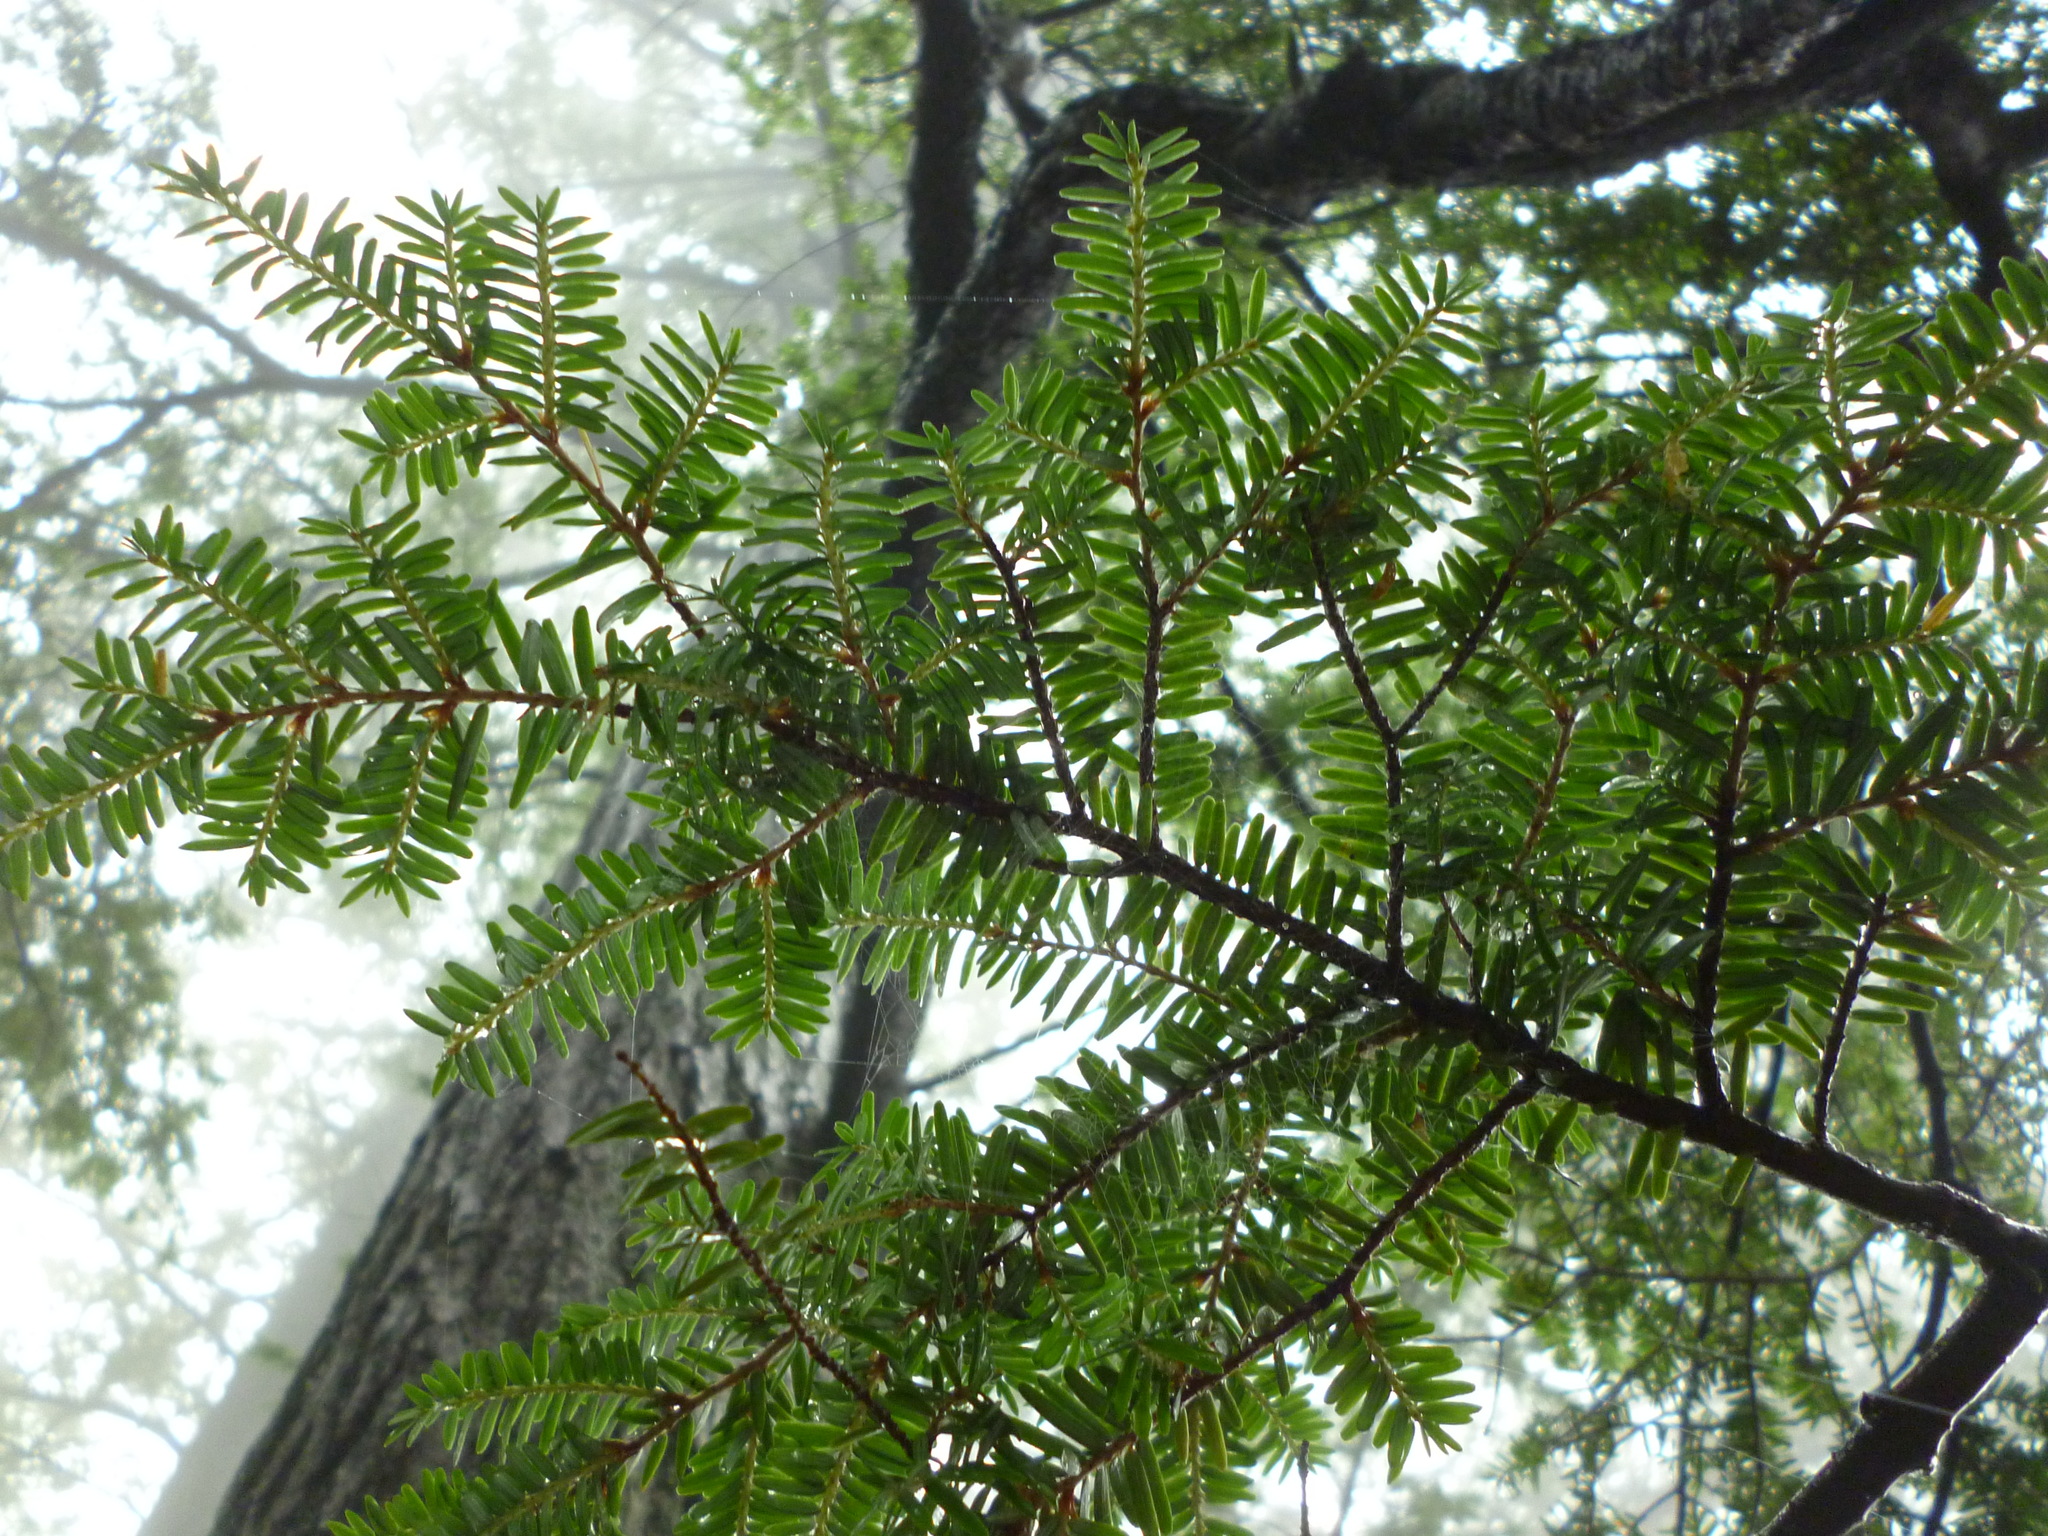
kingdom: Plantae
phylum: Tracheophyta
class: Pinopsida
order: Pinales
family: Pinaceae
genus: Tsuga
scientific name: Tsuga canadensis
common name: Eastern hemlock
